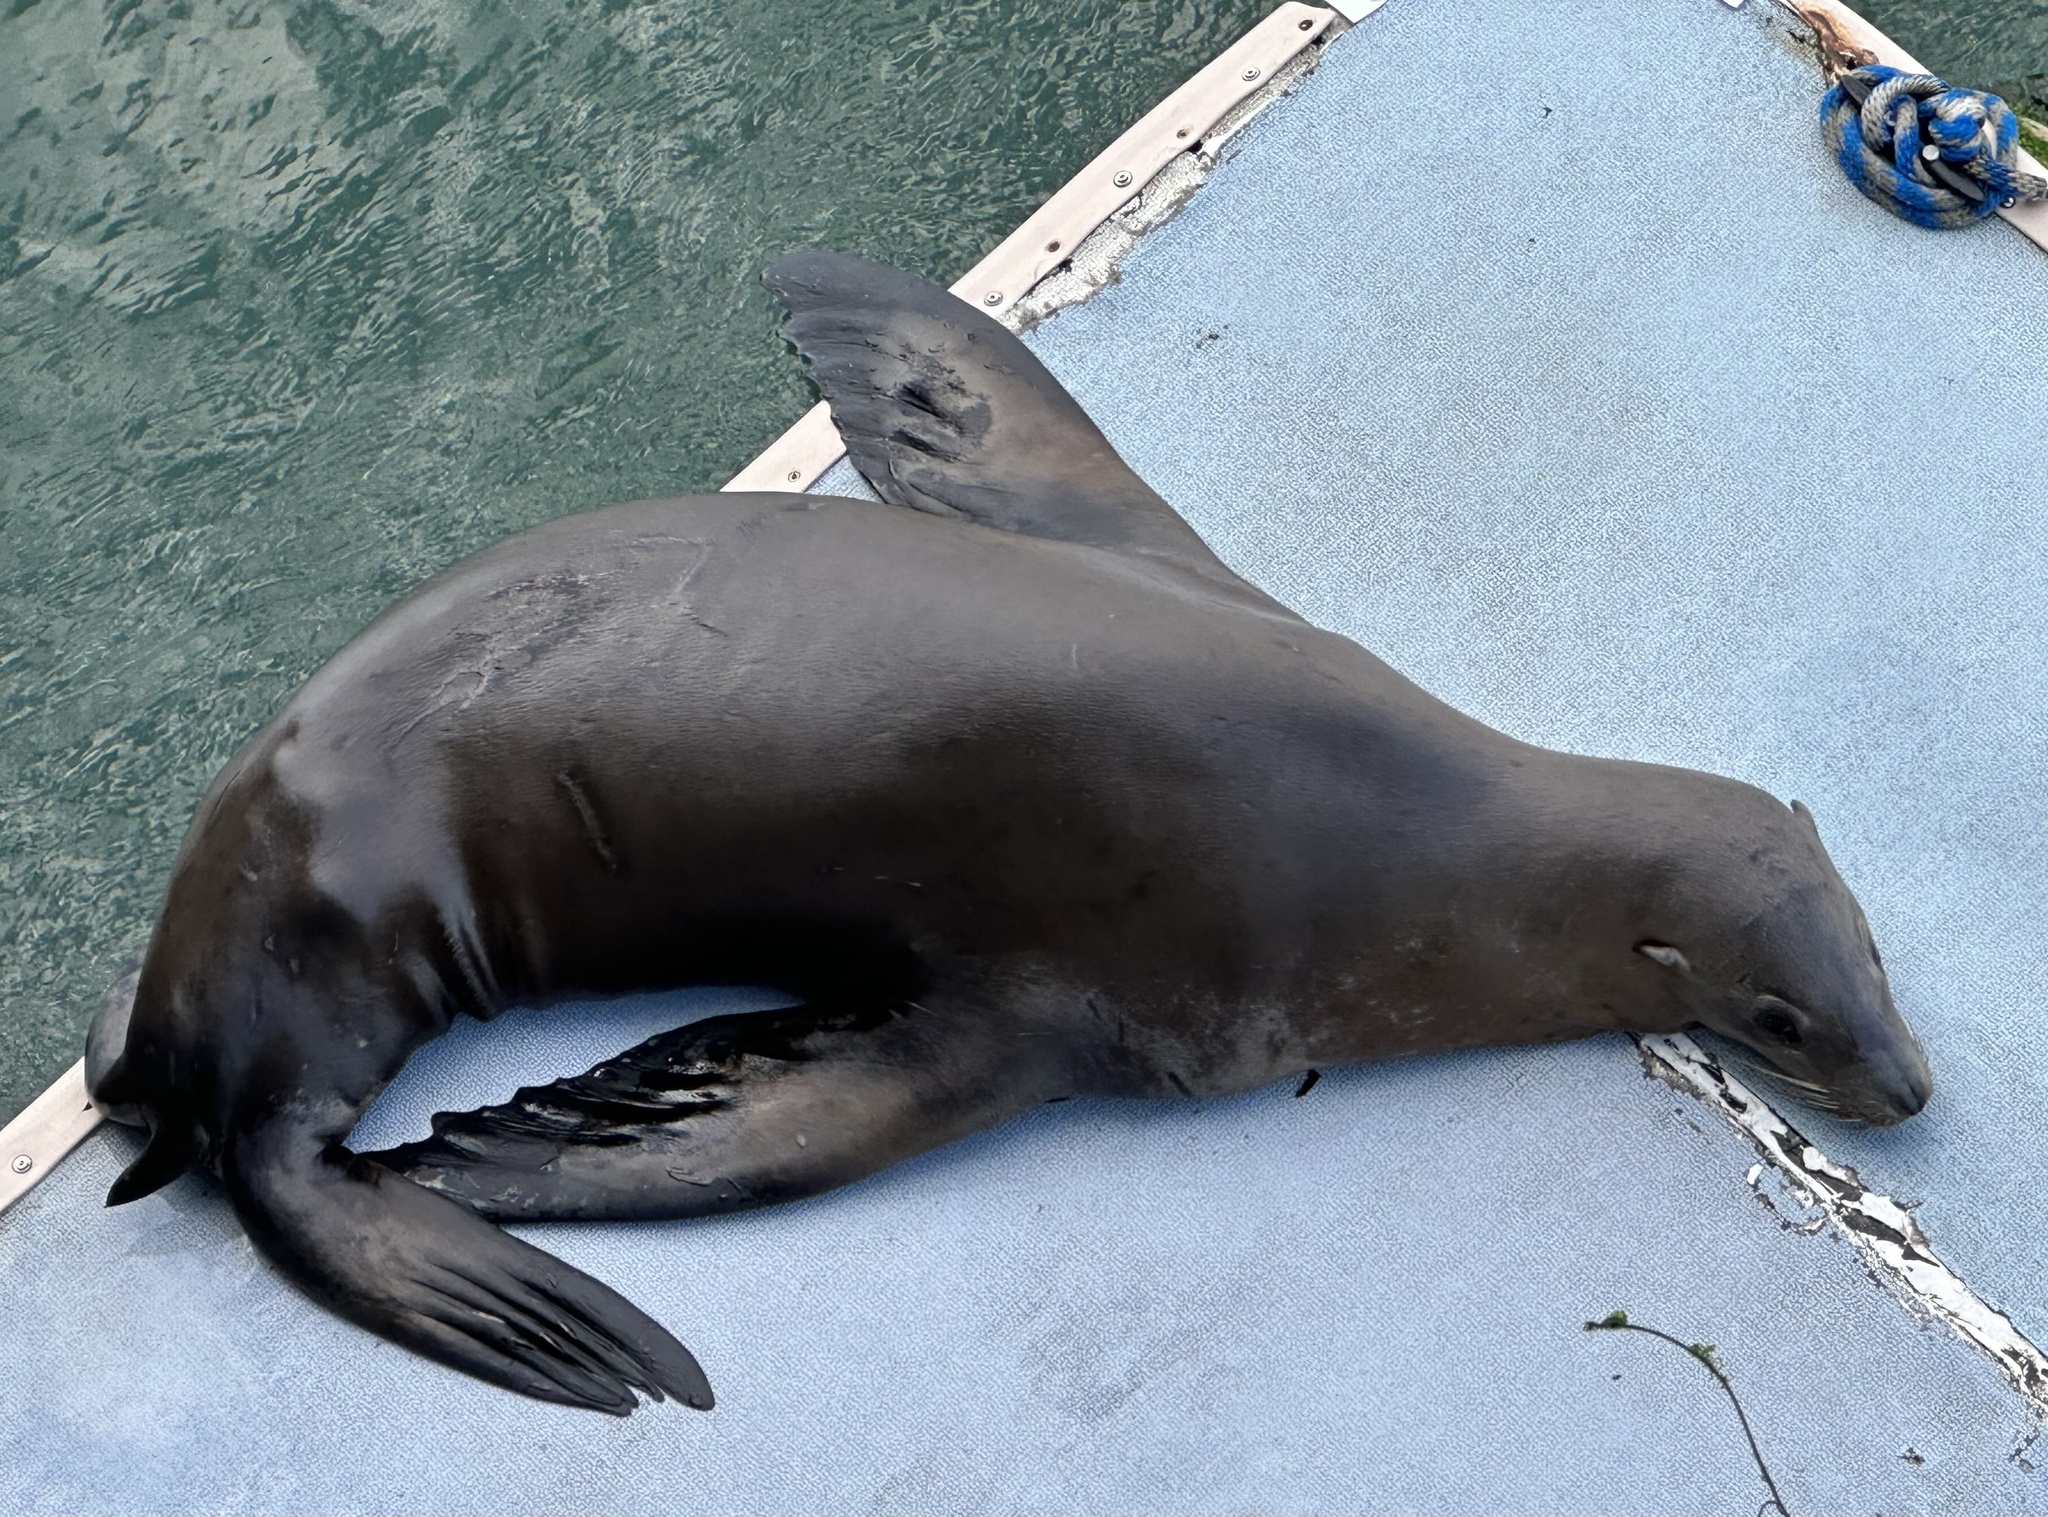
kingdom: Animalia
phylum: Chordata
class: Mammalia
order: Carnivora
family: Otariidae
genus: Zalophus
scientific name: Zalophus californianus
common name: California sea lion
